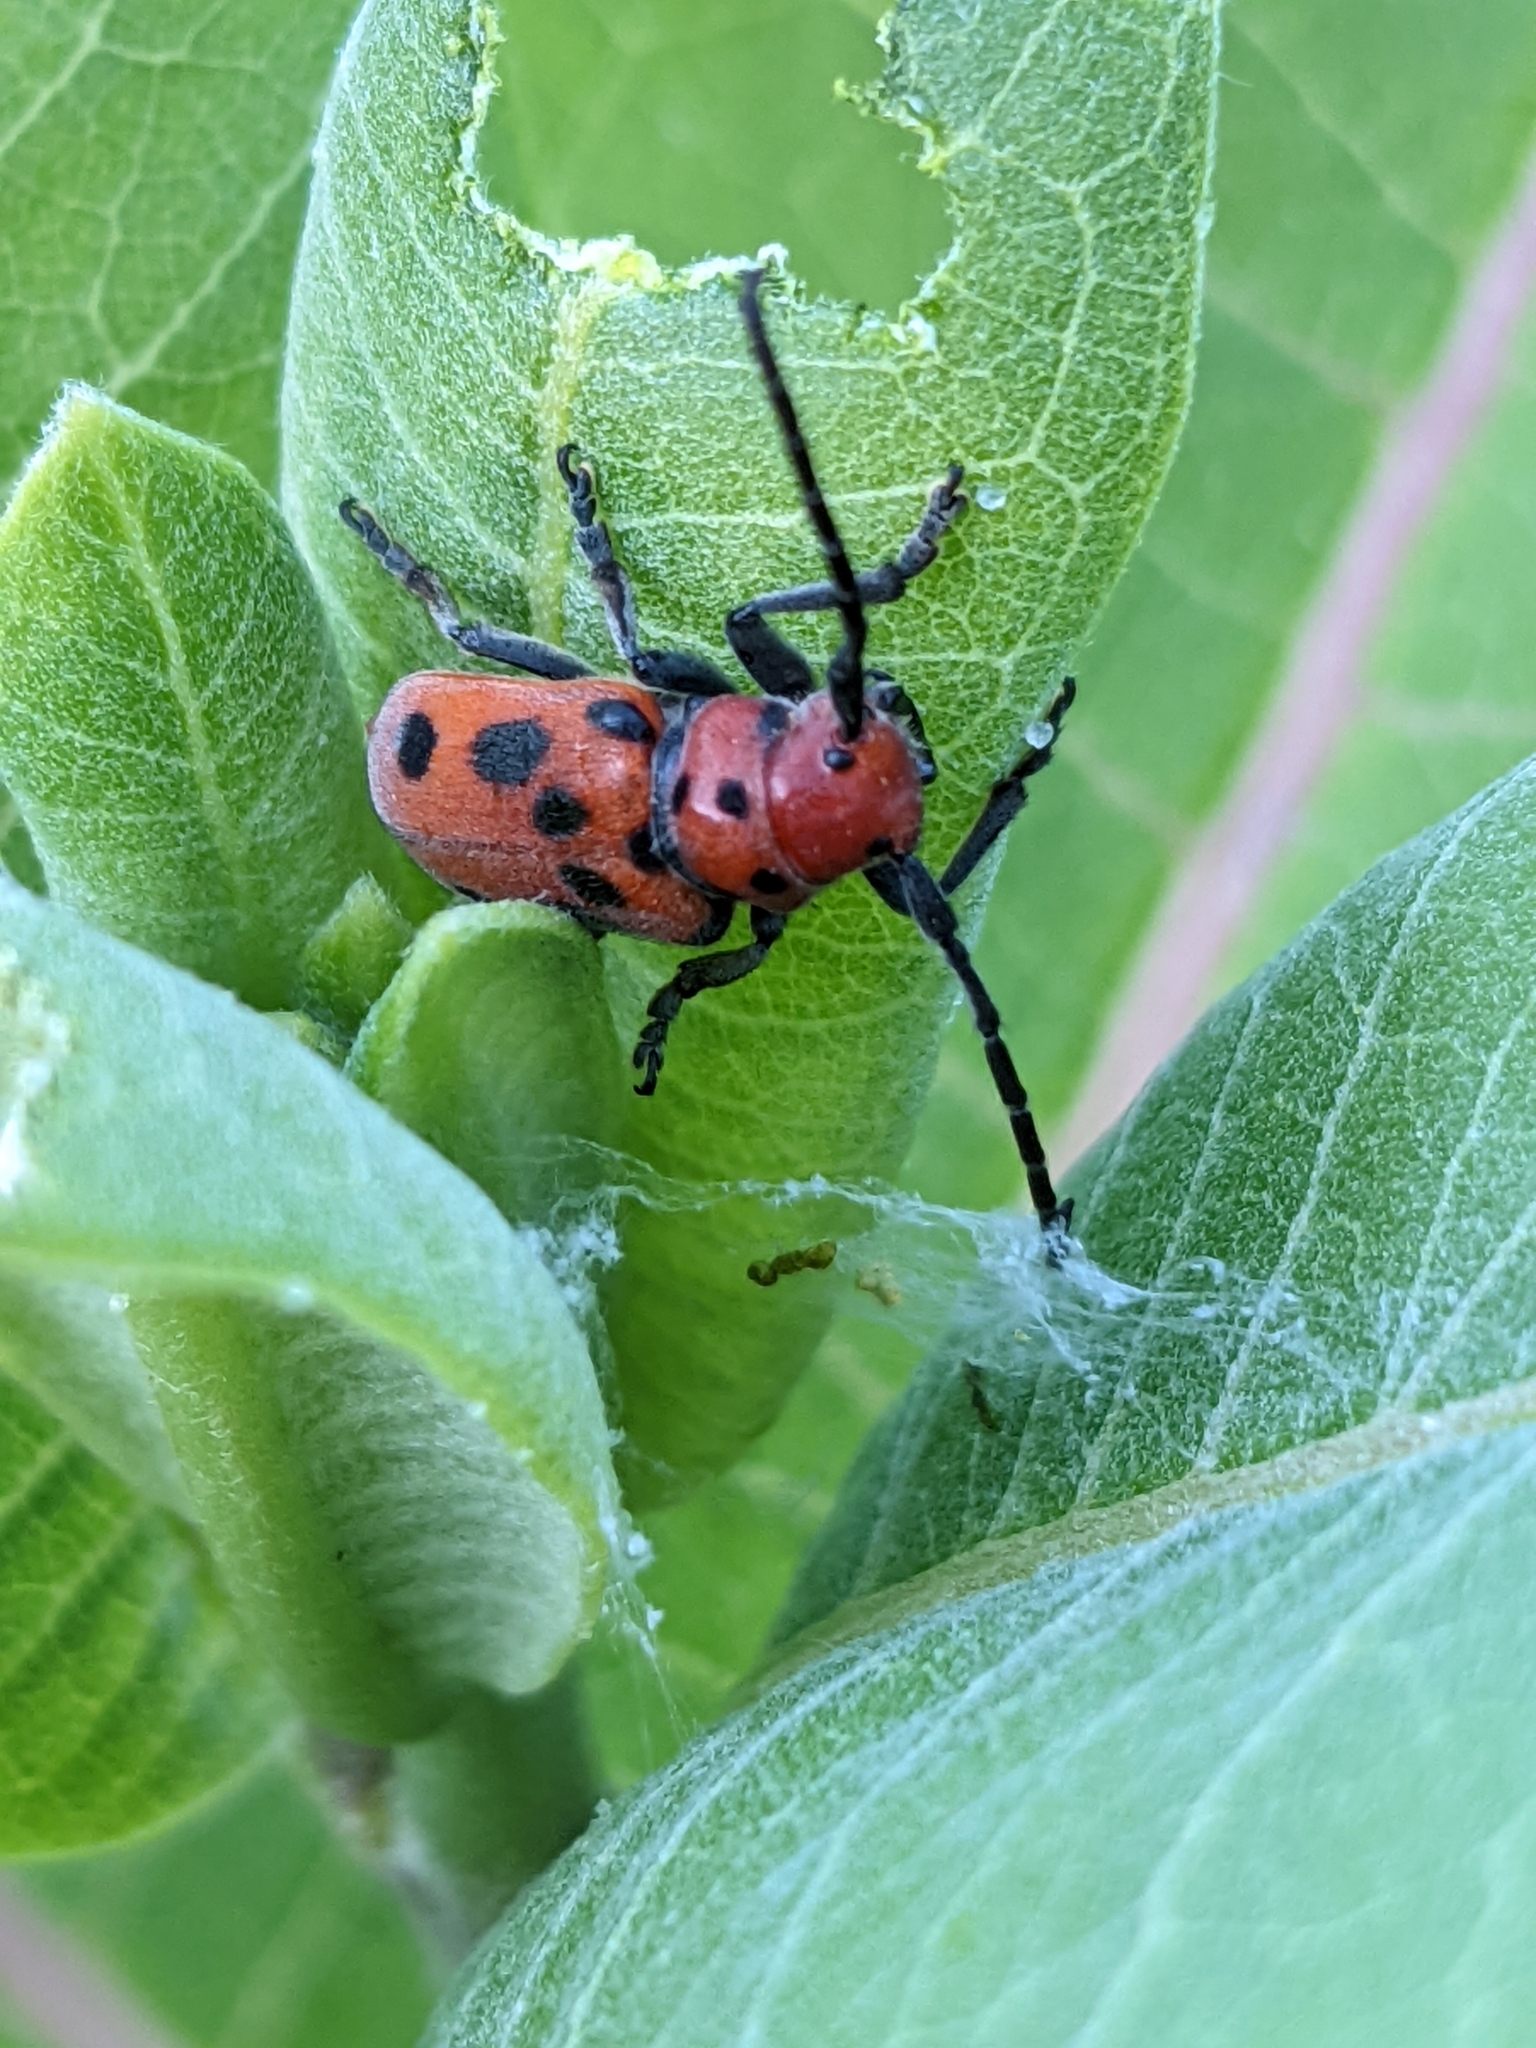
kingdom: Animalia
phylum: Arthropoda
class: Insecta
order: Coleoptera
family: Cerambycidae
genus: Tetraopes
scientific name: Tetraopes tetrophthalmus
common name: Red milkweed beetle
